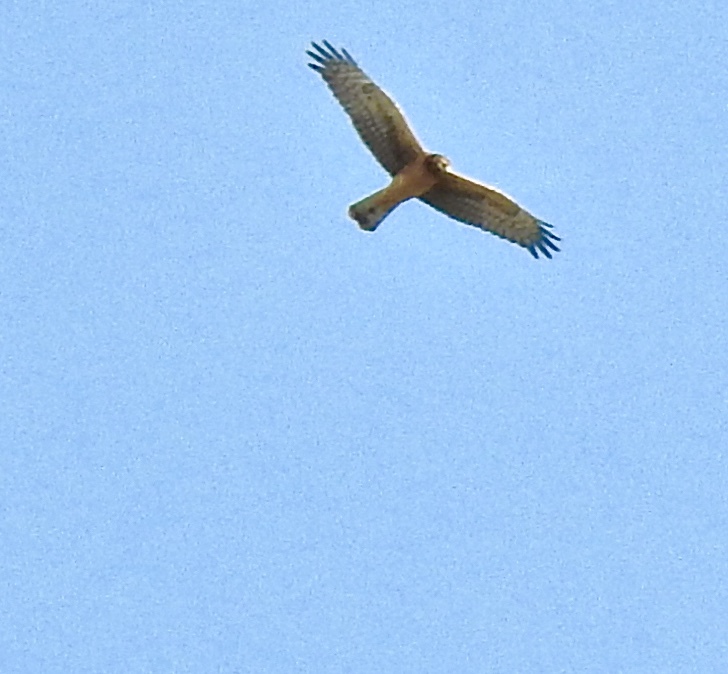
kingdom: Animalia
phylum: Chordata
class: Aves
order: Accipitriformes
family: Accipitridae
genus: Circus
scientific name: Circus cyaneus
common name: Hen harrier
